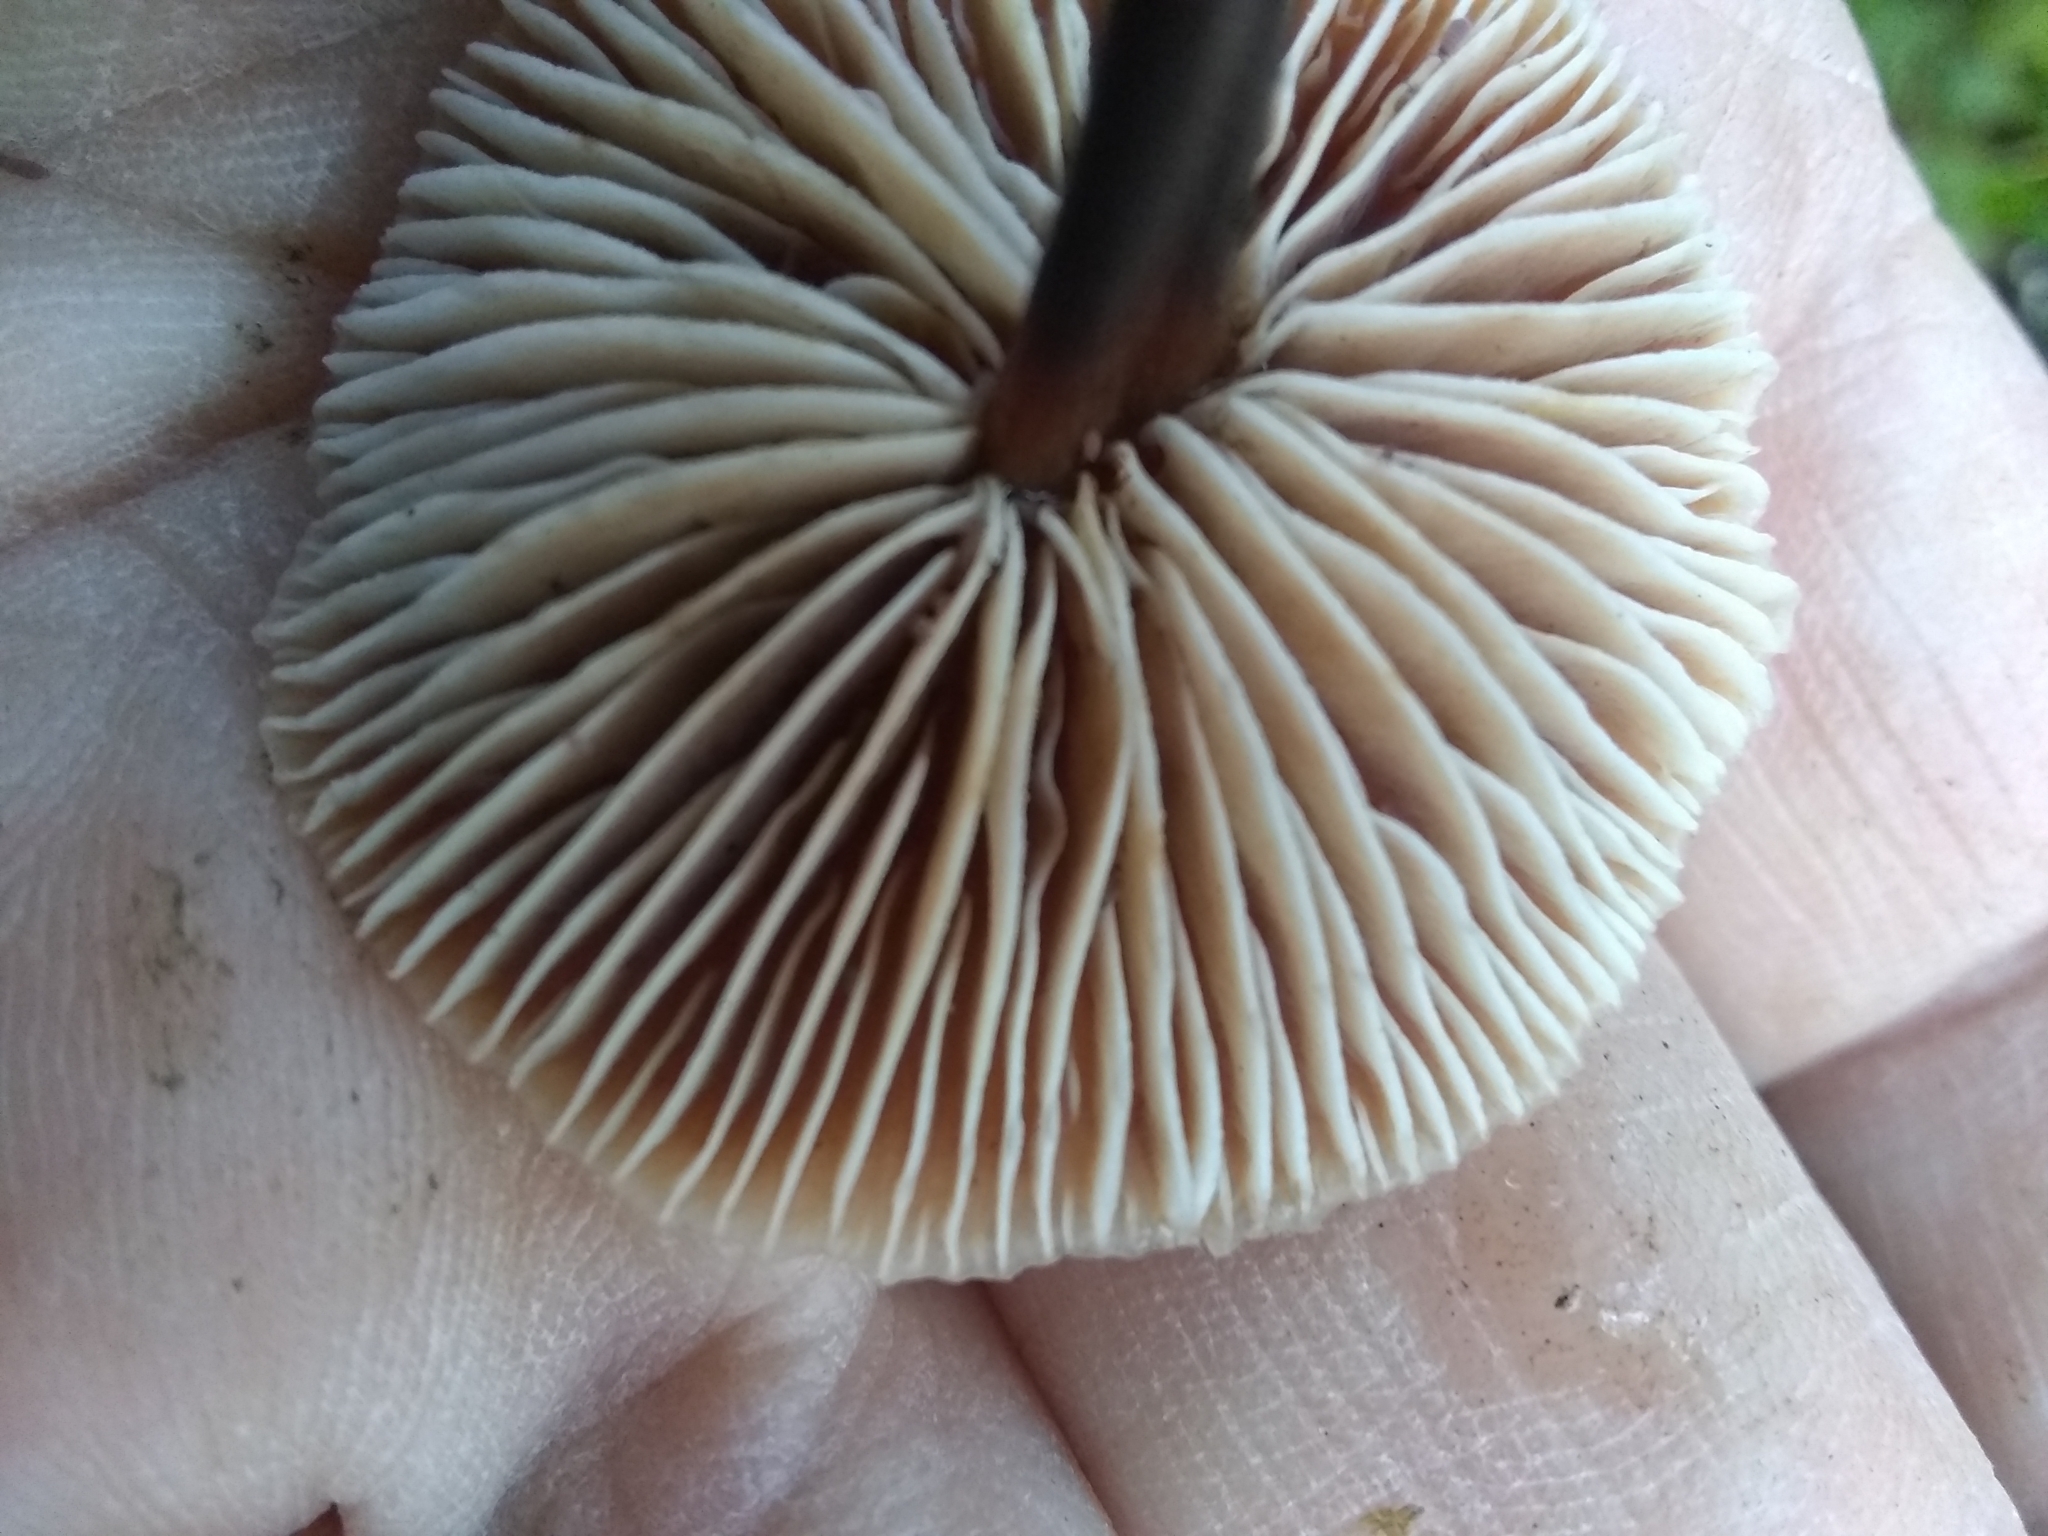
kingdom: Fungi
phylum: Basidiomycota
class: Agaricomycetes
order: Agaricales
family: Omphalotaceae
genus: Gymnopus
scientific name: Gymnopus brassicolens
